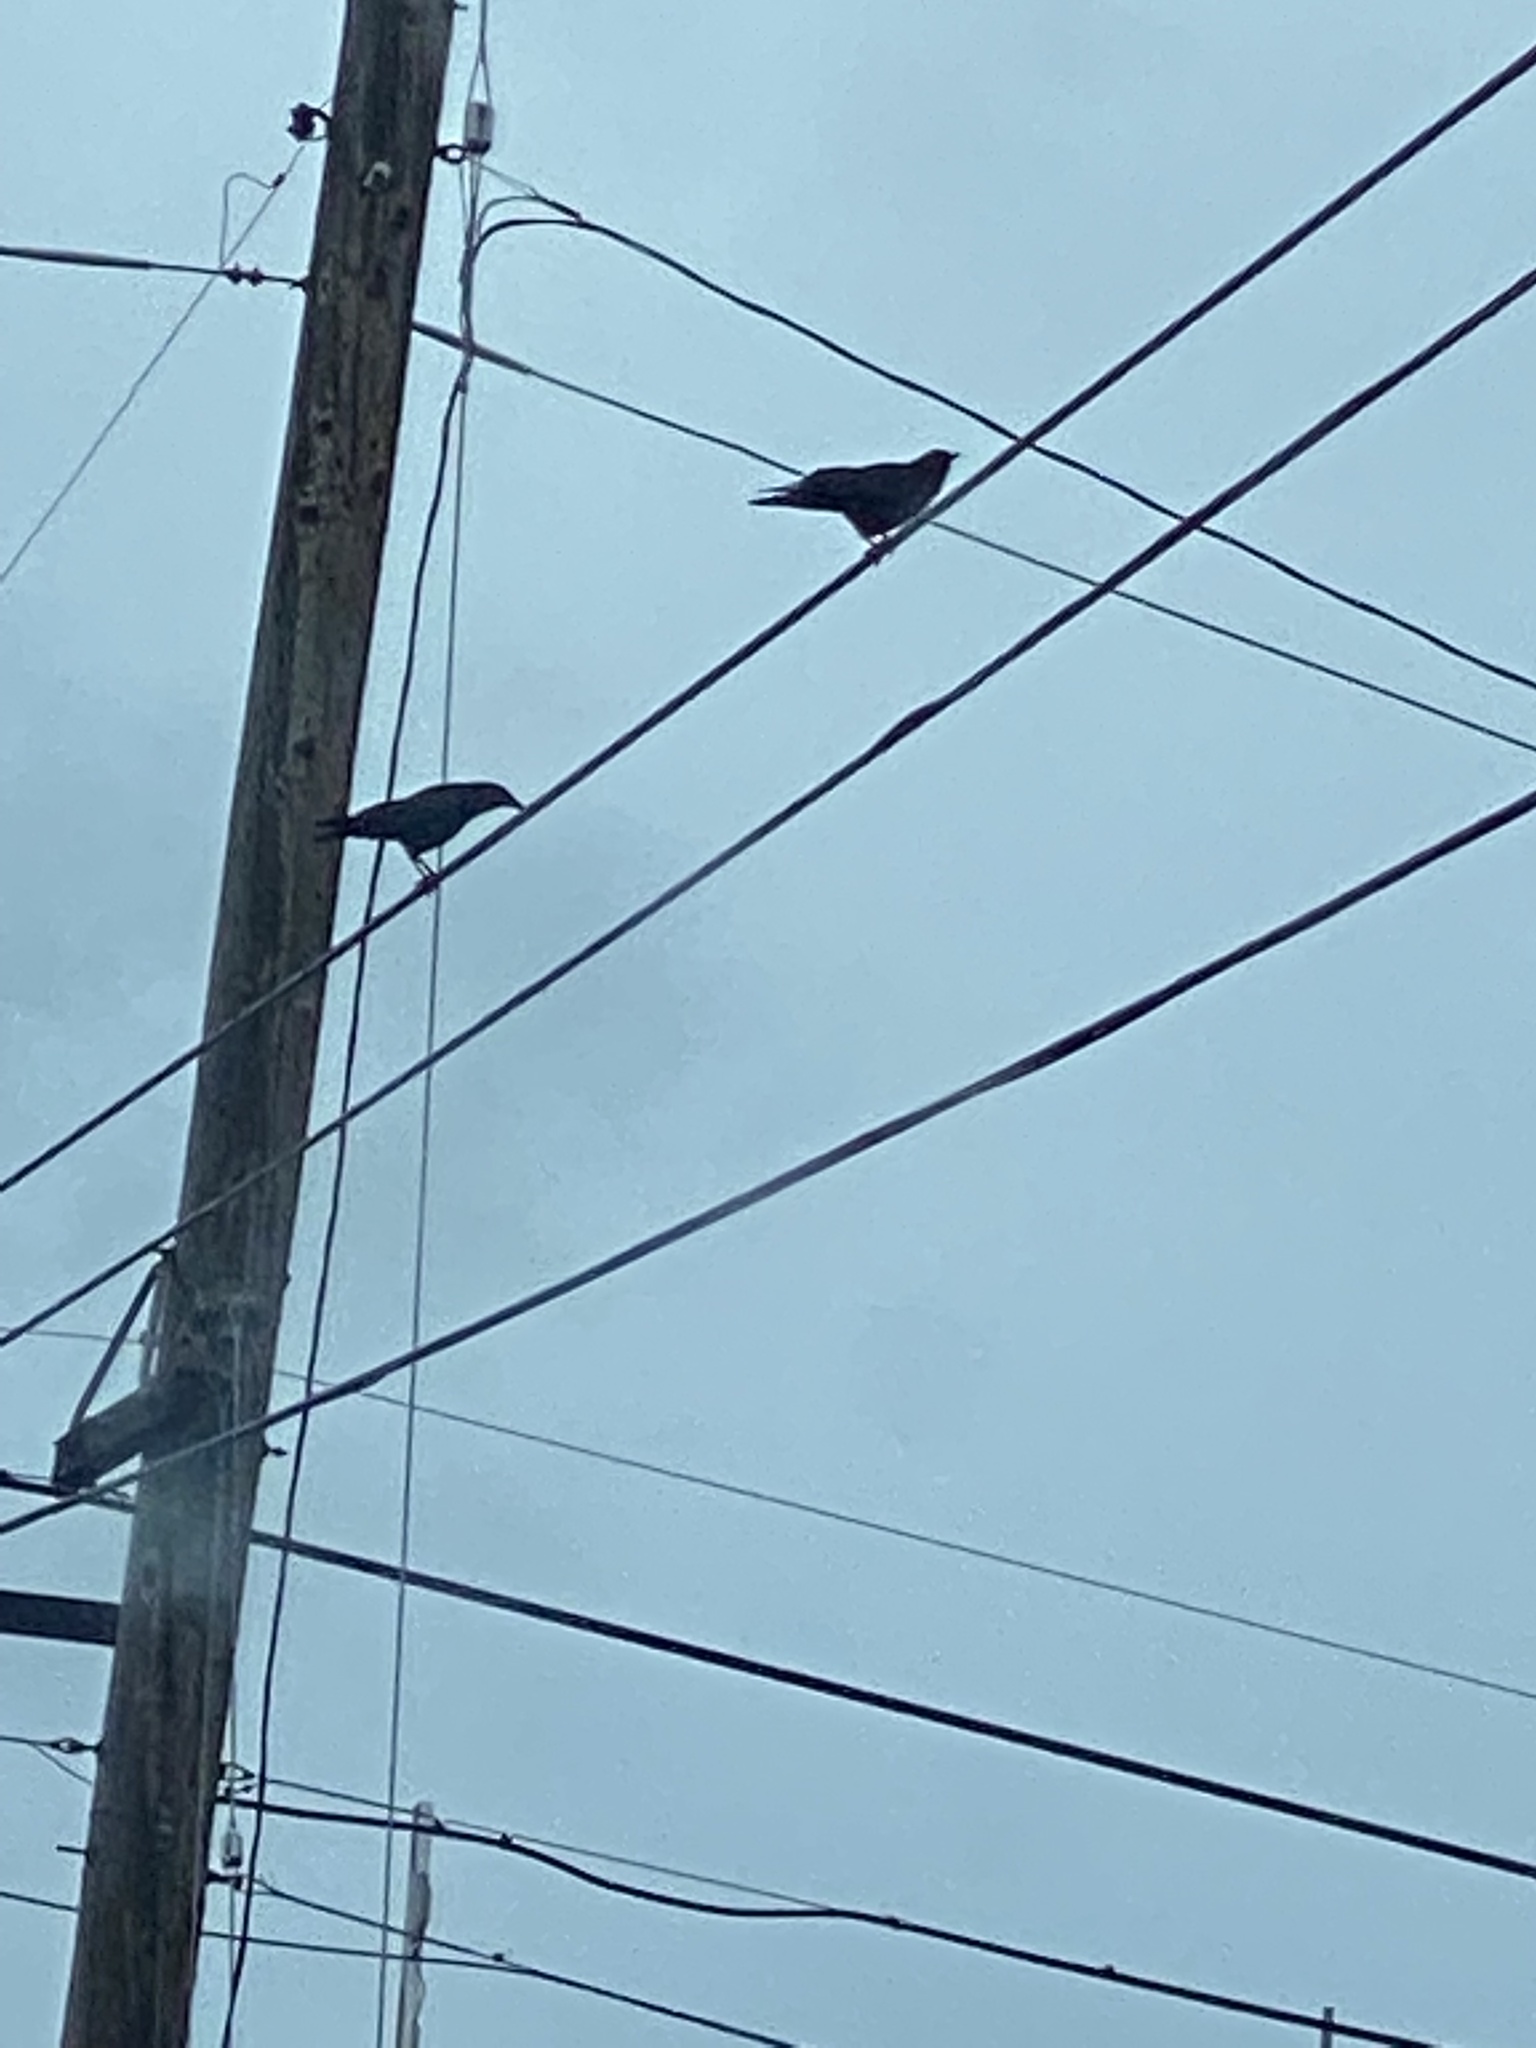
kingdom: Animalia
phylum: Chordata
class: Aves
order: Passeriformes
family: Corvidae
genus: Corvus
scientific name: Corvus brachyrhynchos
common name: American crow
